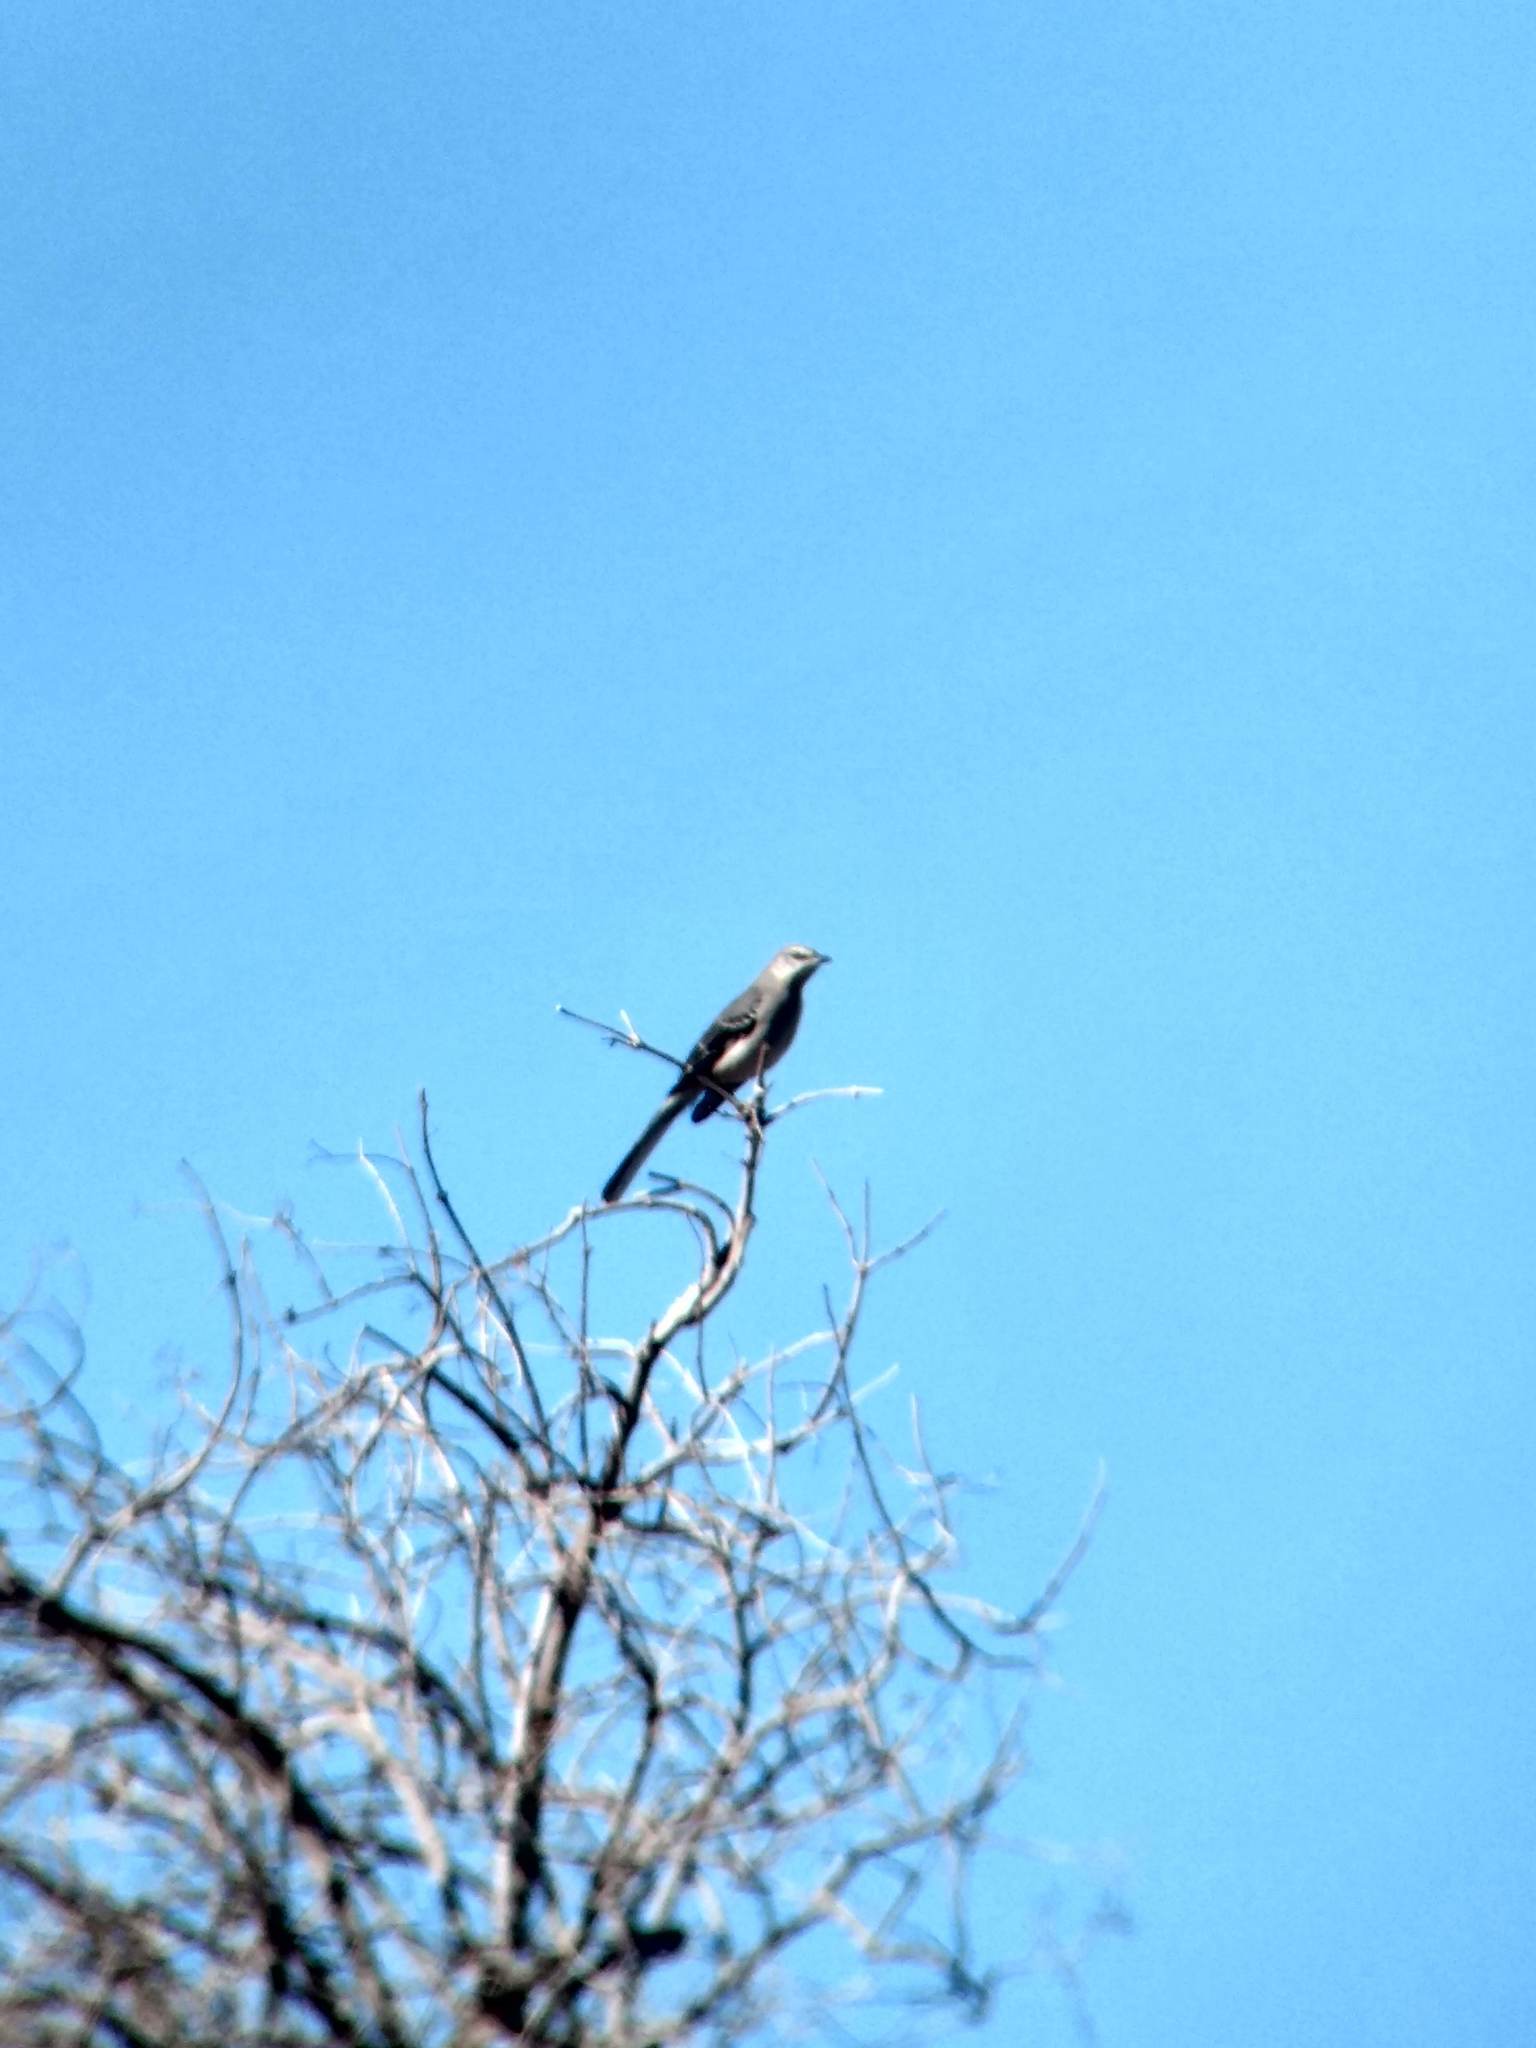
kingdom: Animalia
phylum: Chordata
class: Aves
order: Passeriformes
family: Mimidae
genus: Mimus
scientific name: Mimus polyglottos
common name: Northern mockingbird
